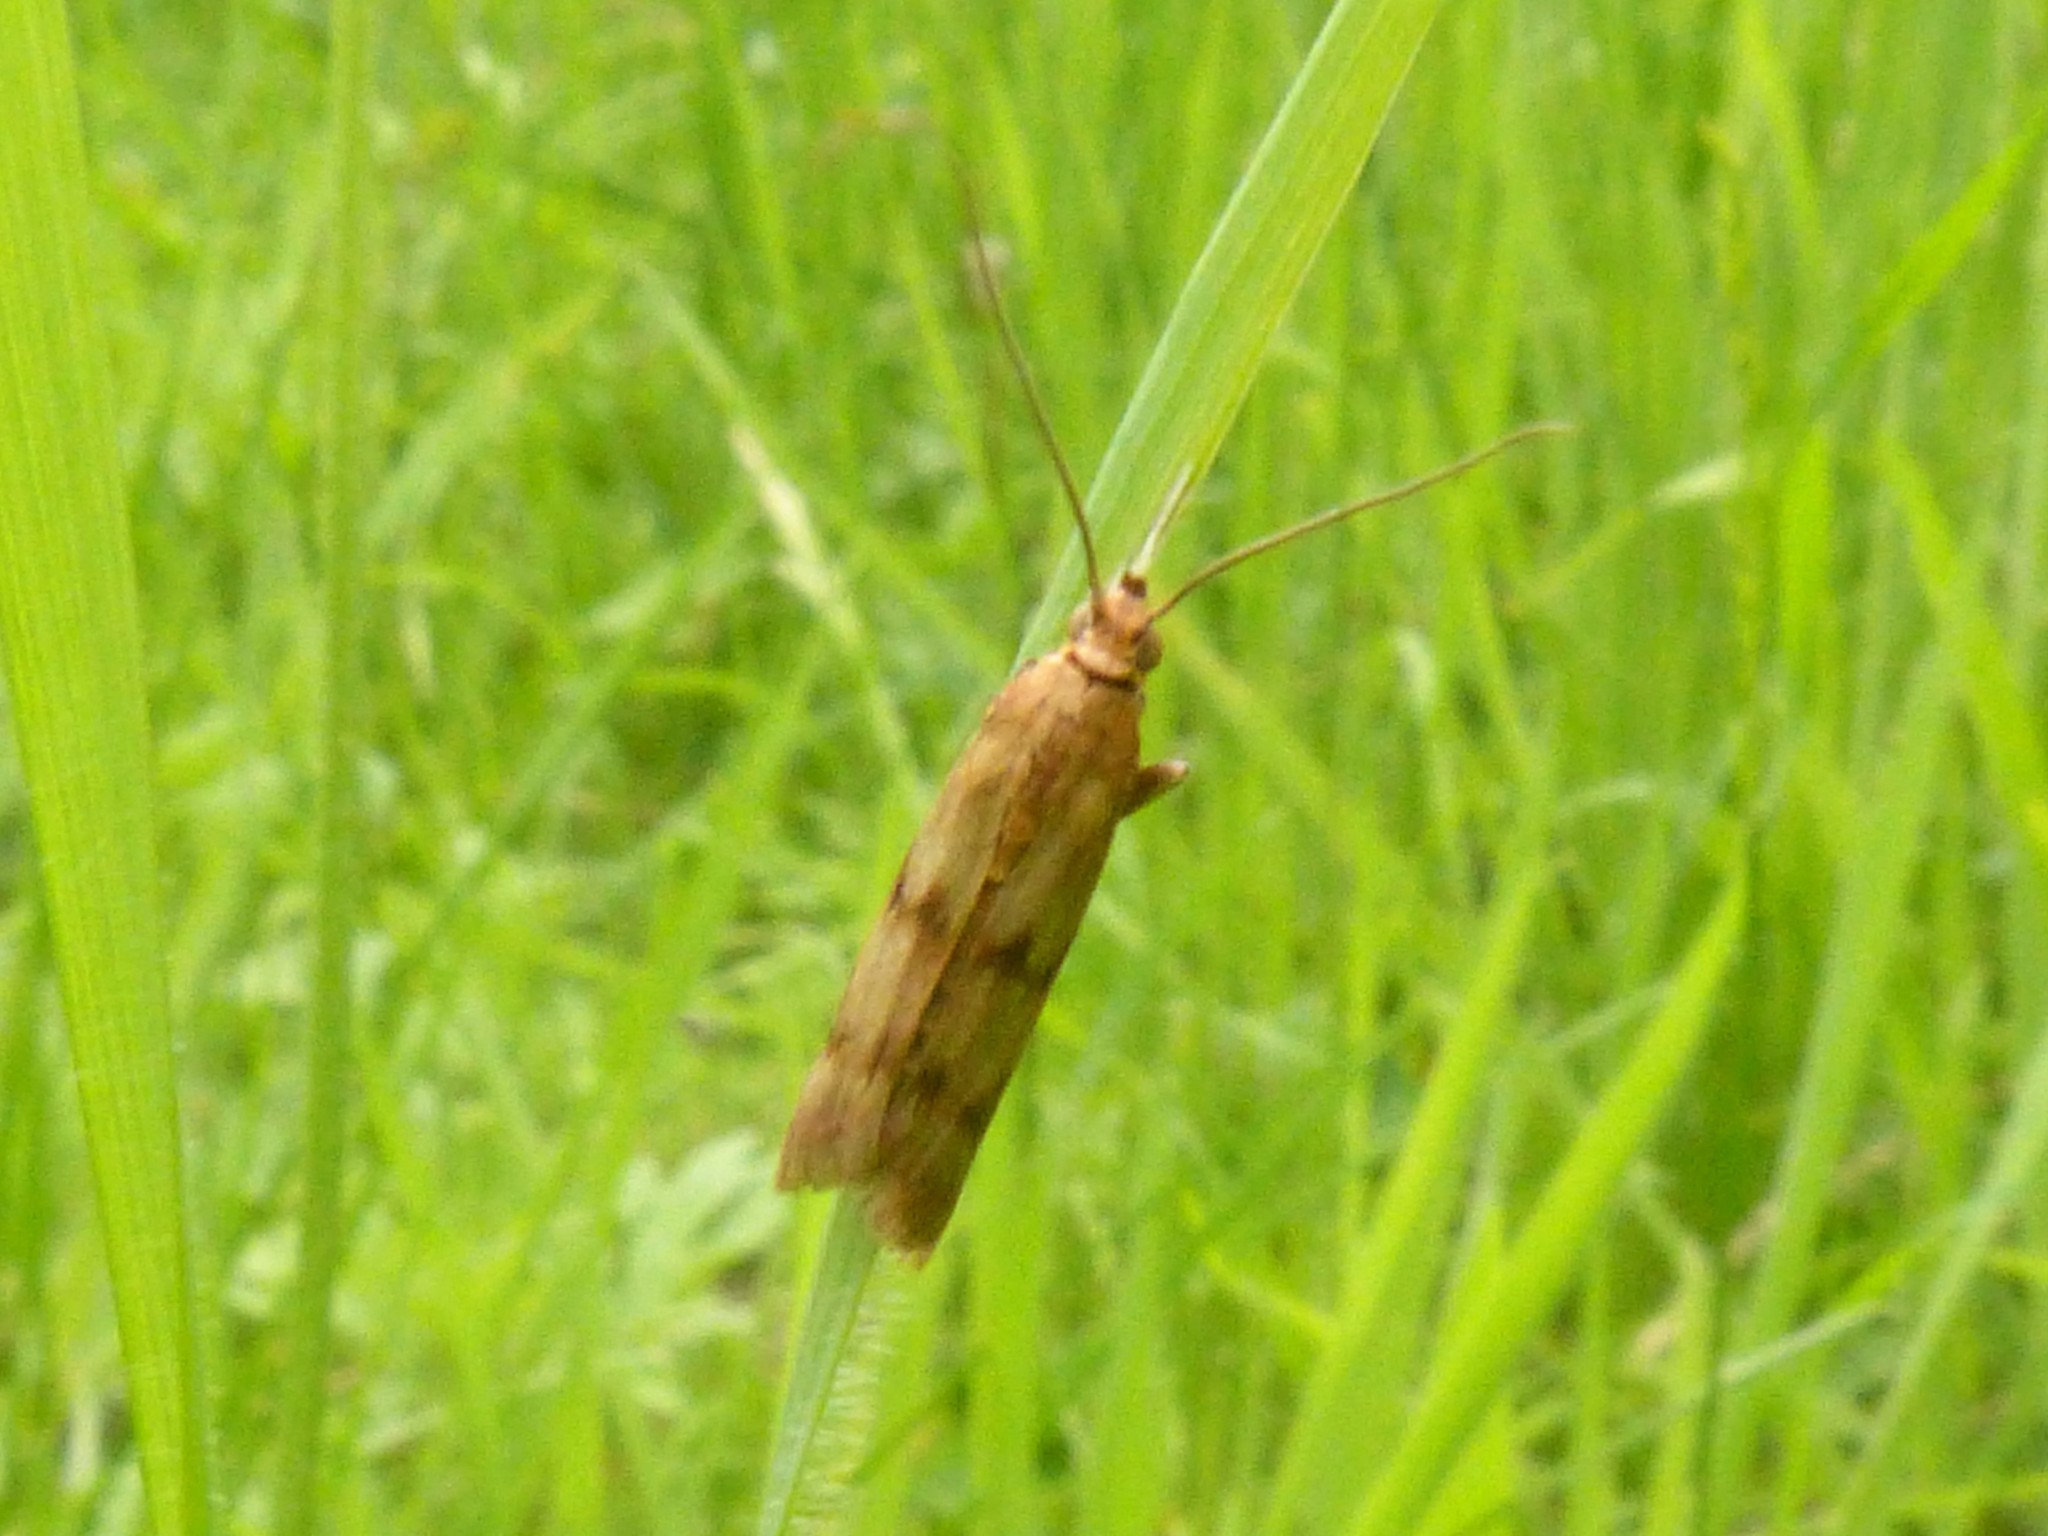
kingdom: Animalia
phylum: Arthropoda
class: Insecta
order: Lepidoptera
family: Pyralidae
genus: Homoeosoma
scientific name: Homoeosoma sinuella
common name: Twin-barred knot-horn
